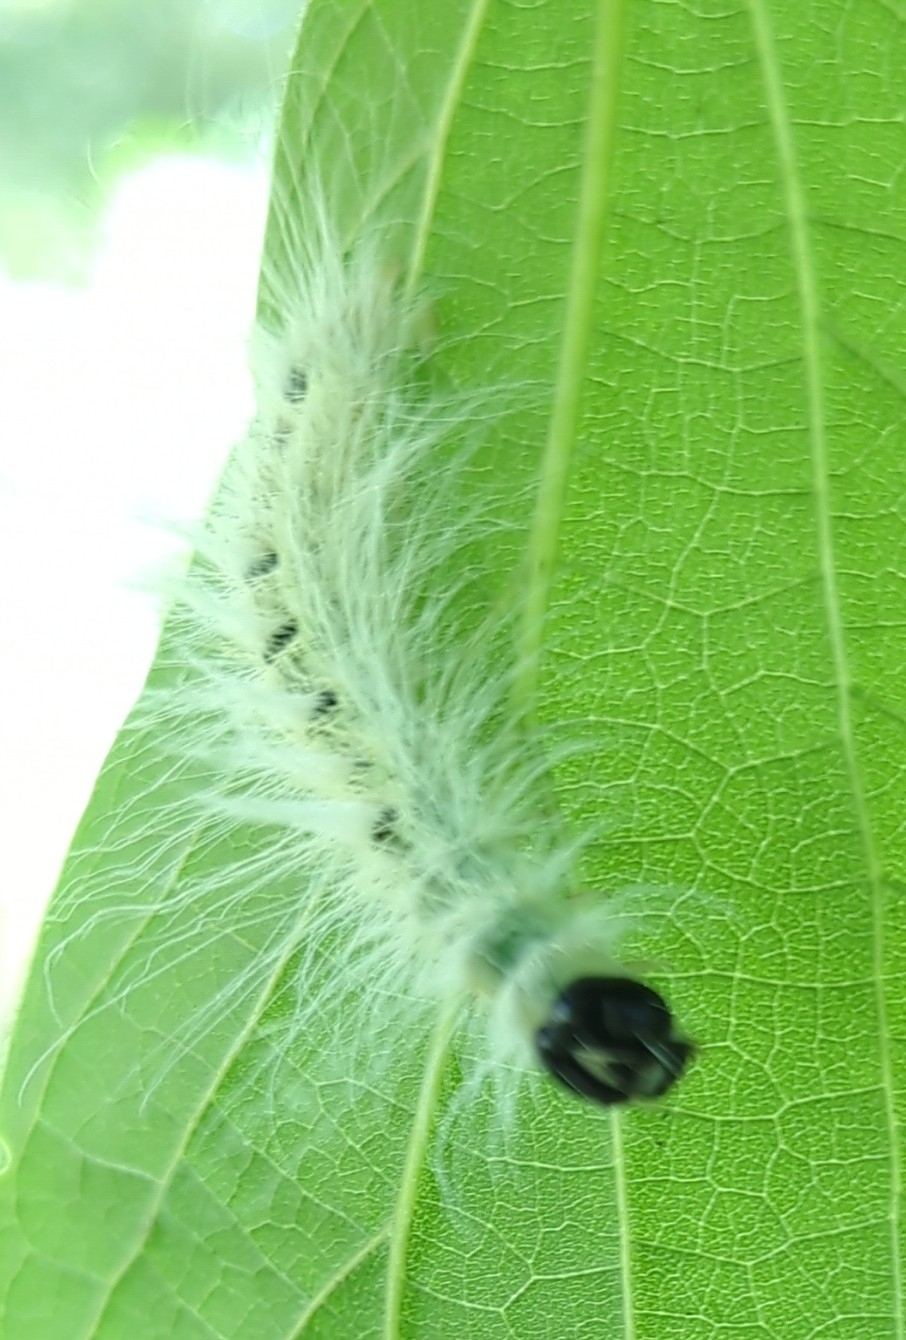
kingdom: Animalia
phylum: Arthropoda
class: Insecta
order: Lepidoptera
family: Noctuidae
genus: Acronicta
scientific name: Acronicta rubricoma
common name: Hackberry dagger
